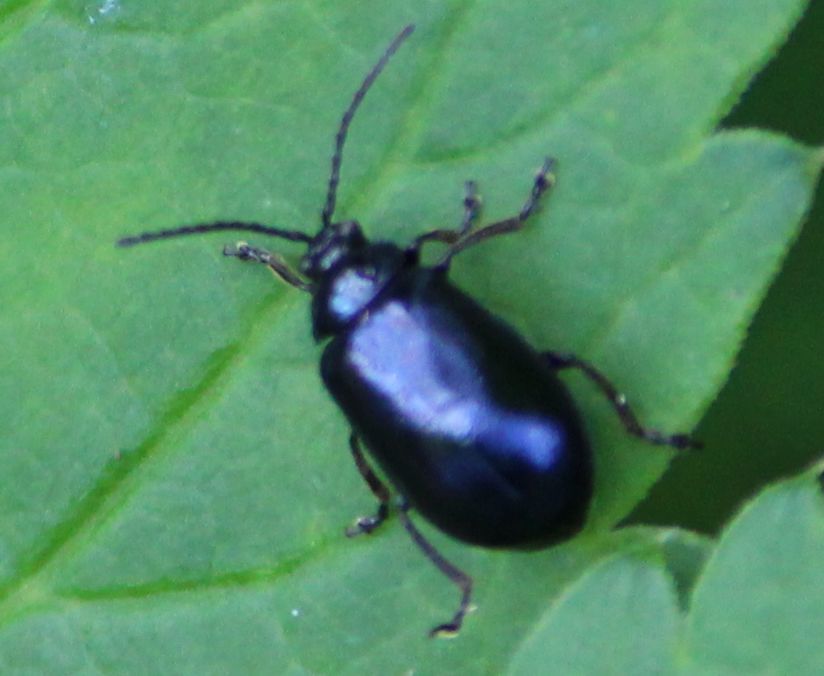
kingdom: Animalia
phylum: Arthropoda
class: Insecta
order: Coleoptera
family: Chrysomelidae
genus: Agelastica
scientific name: Agelastica alni
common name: Alder leaf beetle
